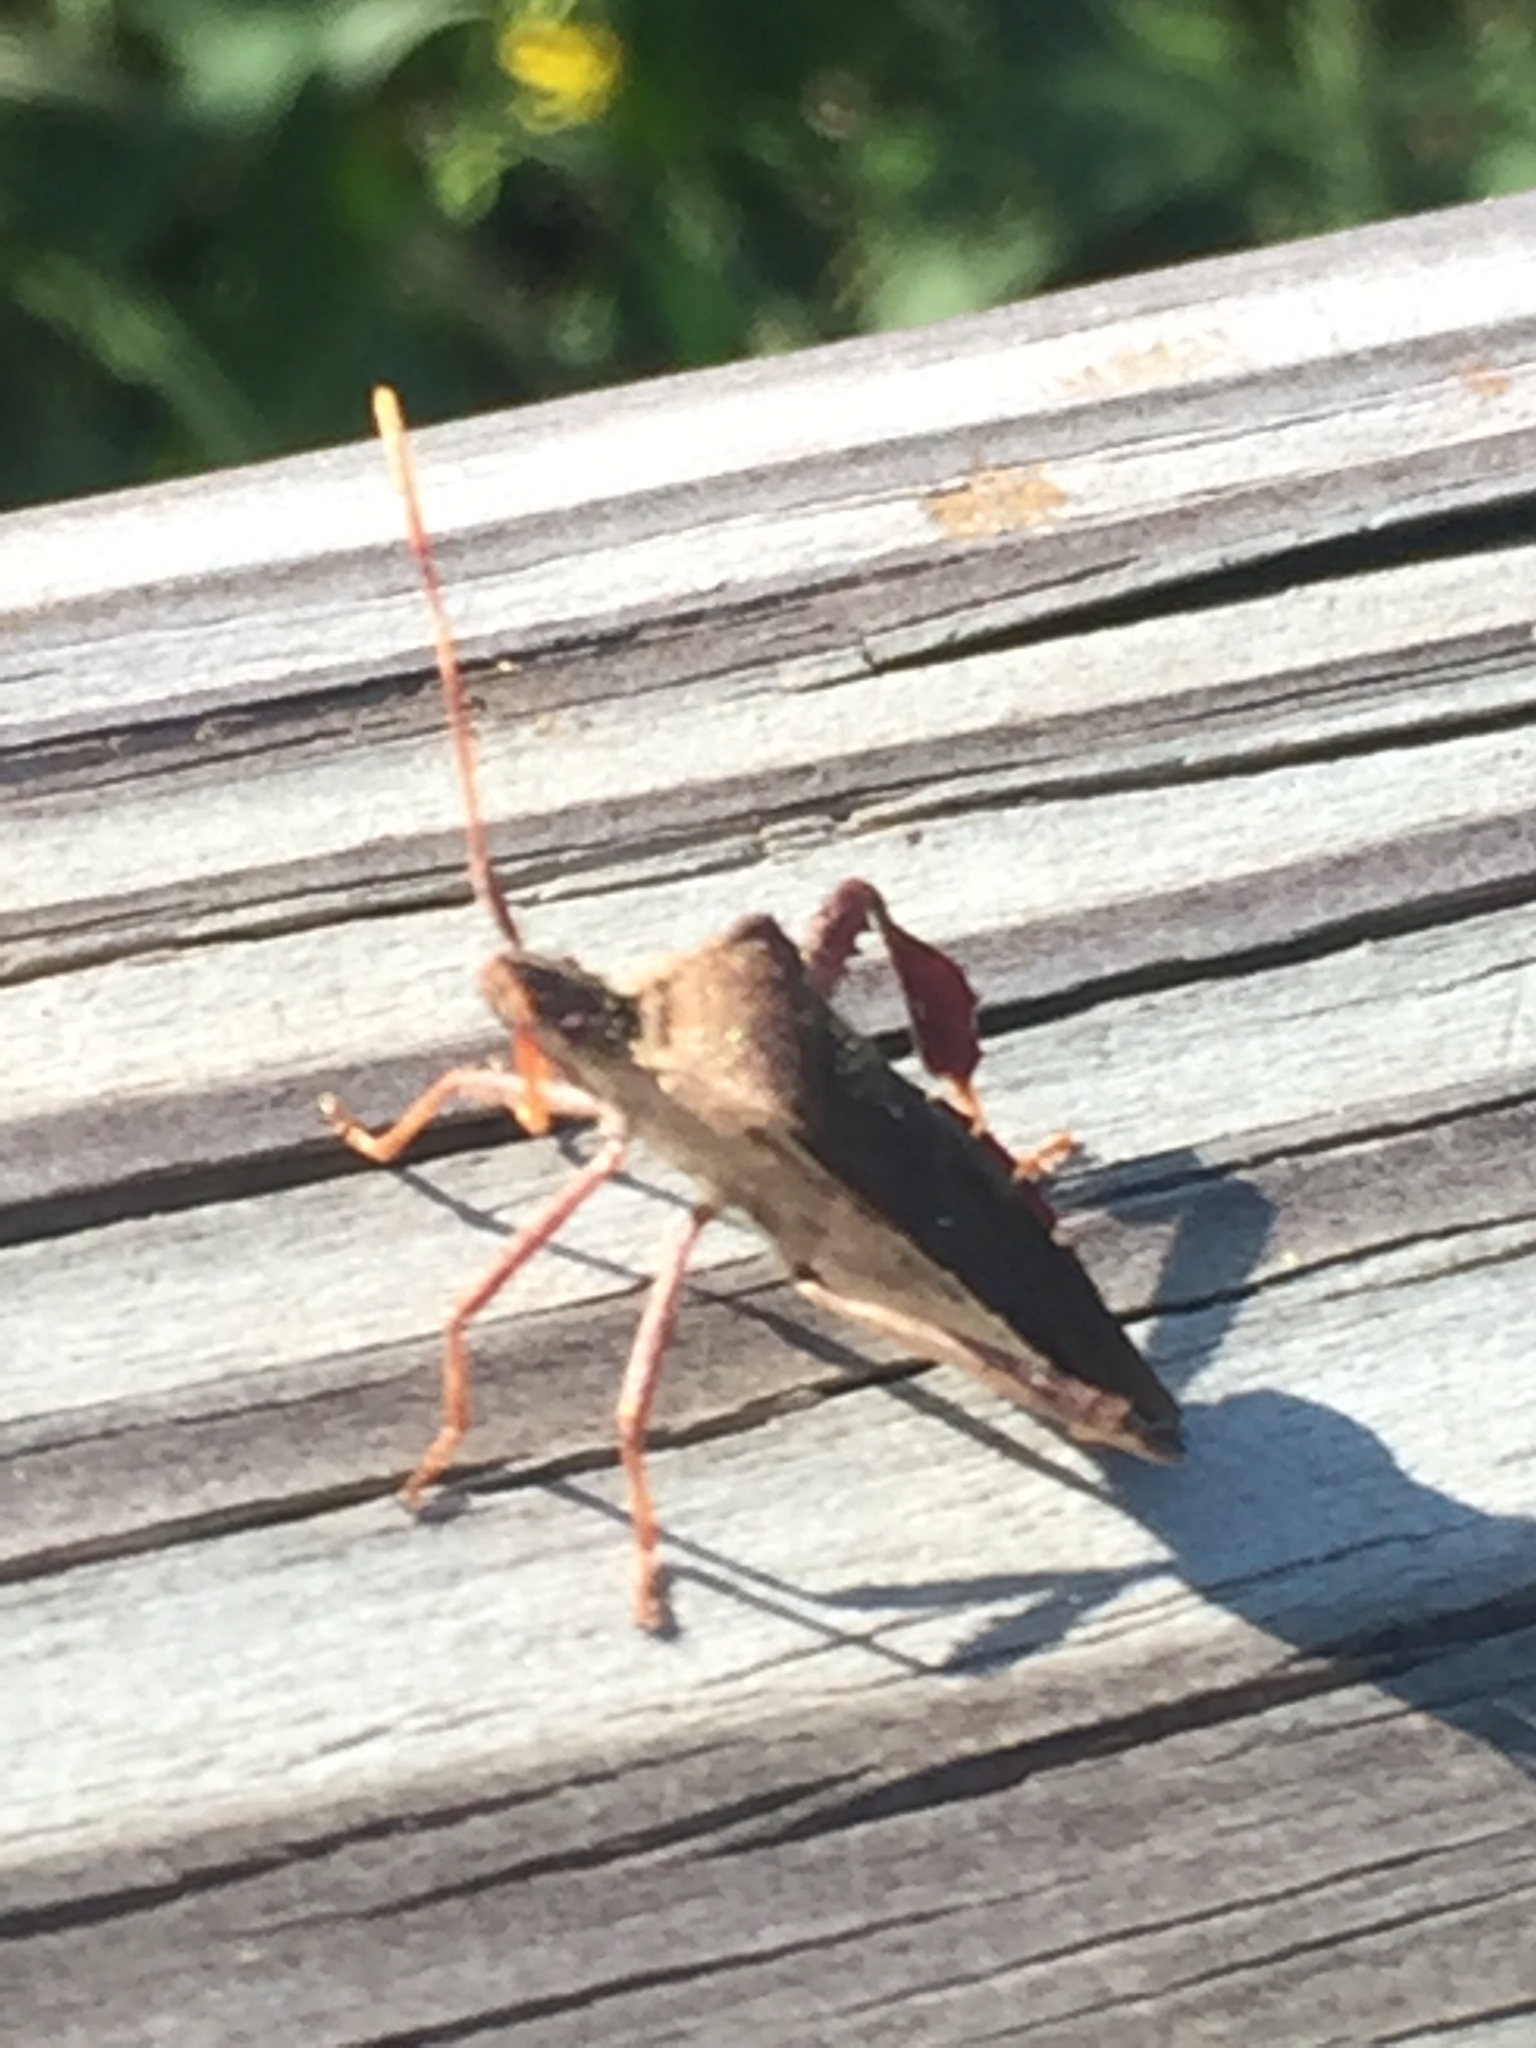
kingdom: Animalia
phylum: Arthropoda
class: Insecta
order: Hemiptera
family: Coreidae
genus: Leptoglossus
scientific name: Leptoglossus oppositus
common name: Northern leaf-footed bug
